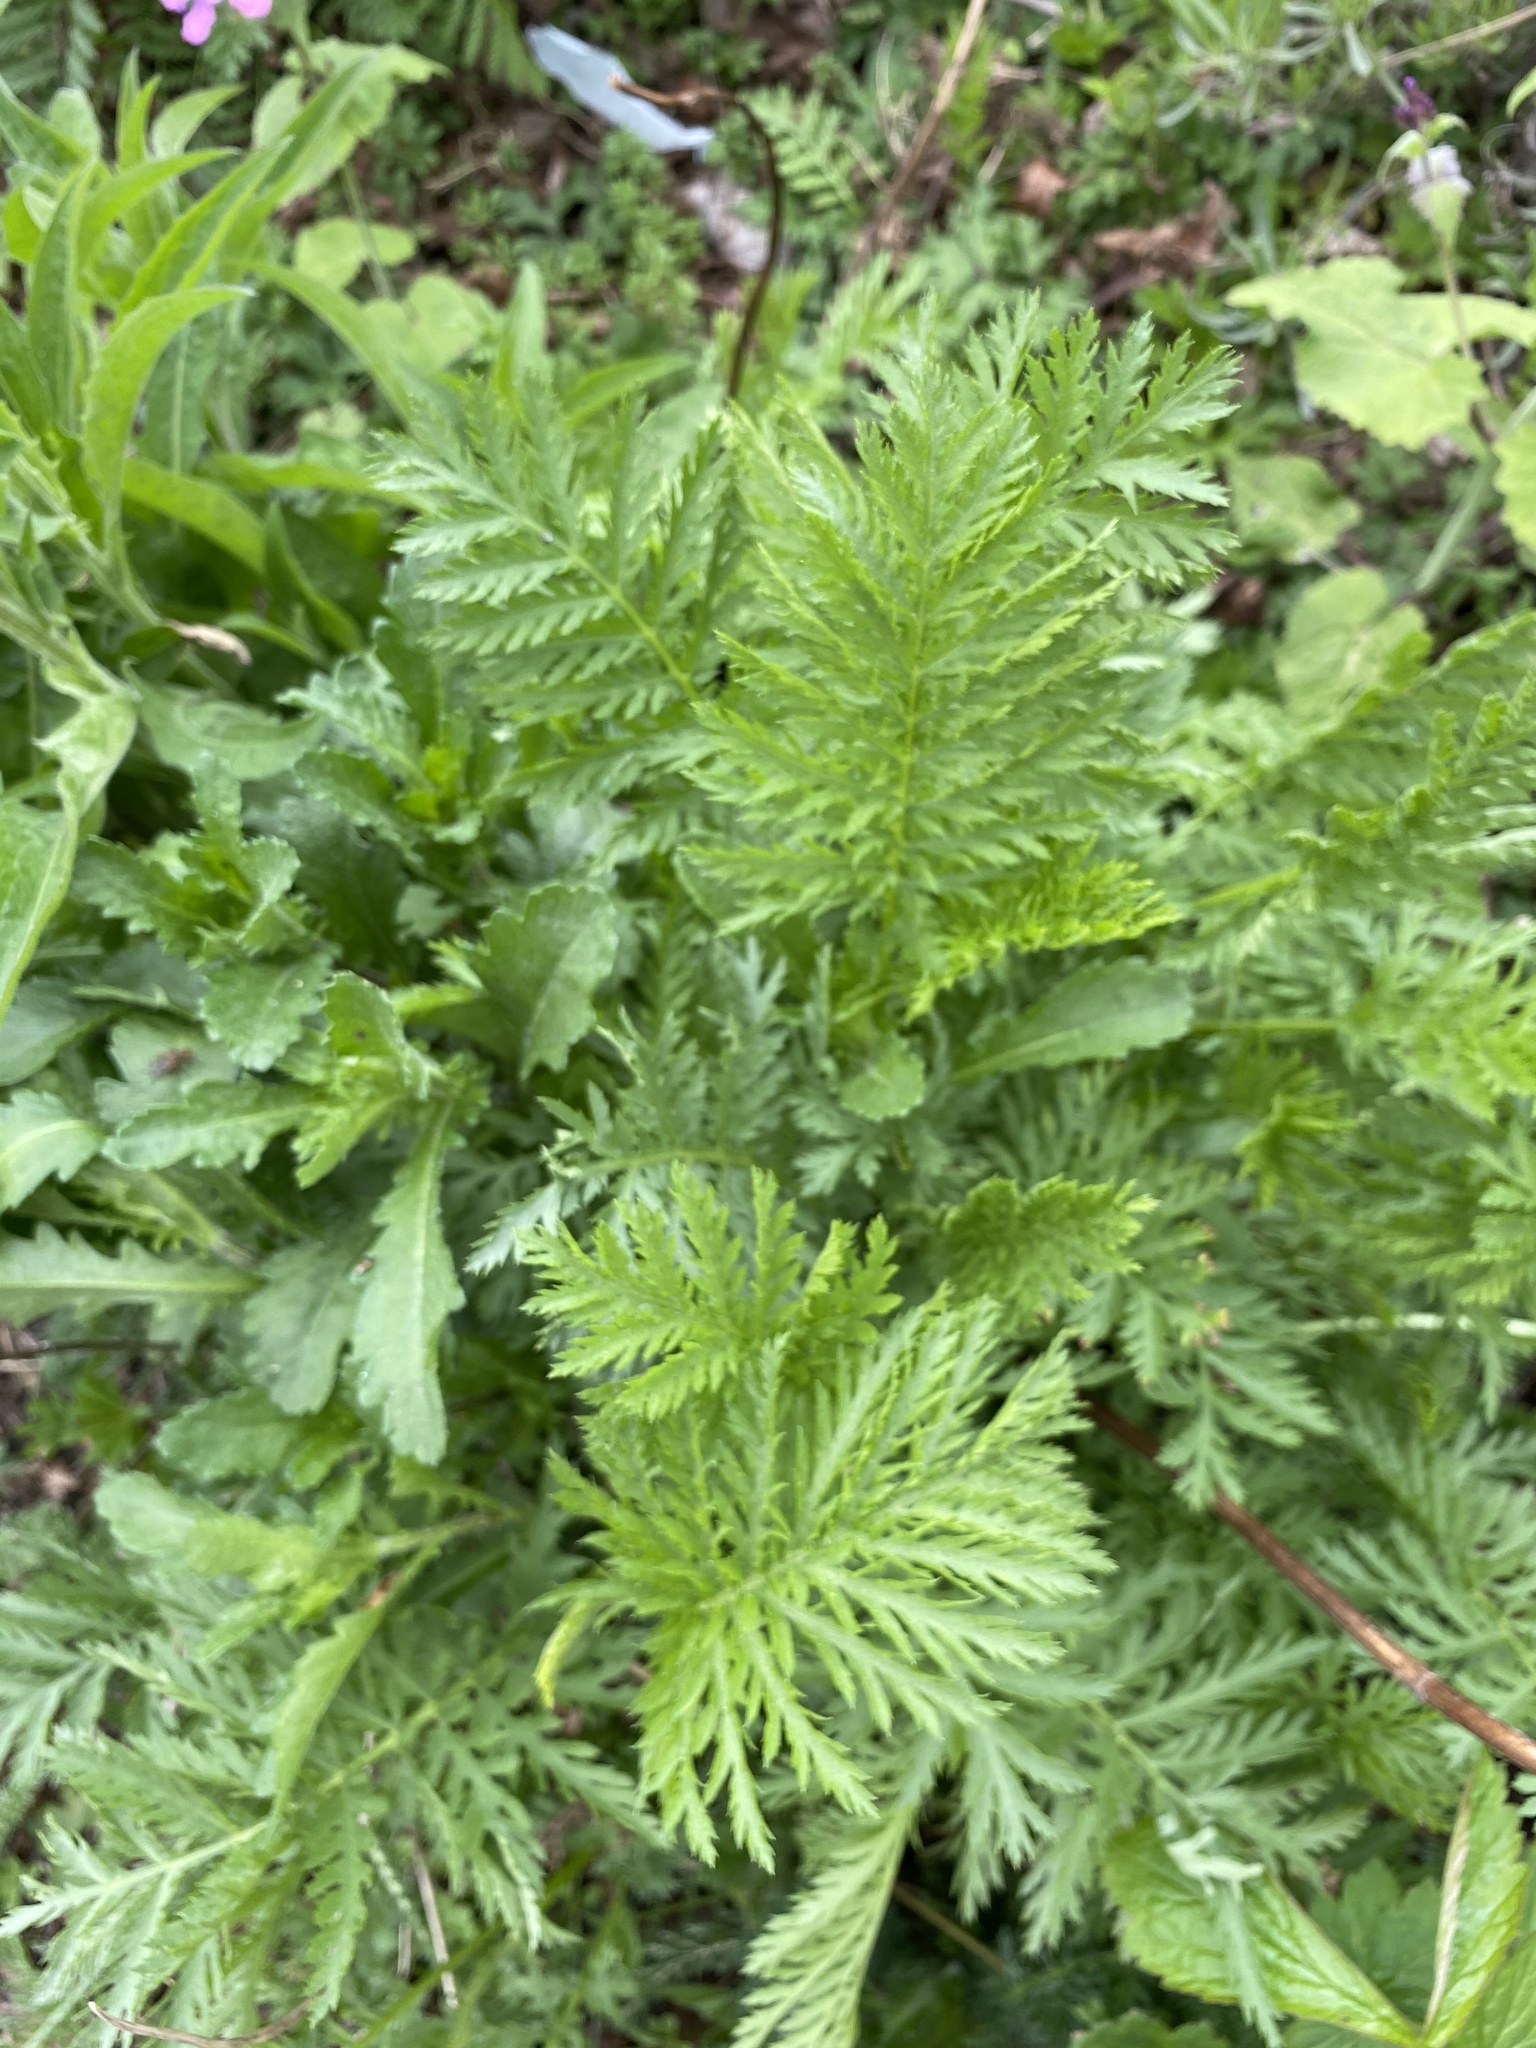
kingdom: Plantae
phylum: Tracheophyta
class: Magnoliopsida
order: Asterales
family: Asteraceae
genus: Tanacetum
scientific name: Tanacetum vulgare
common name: Common tansy
